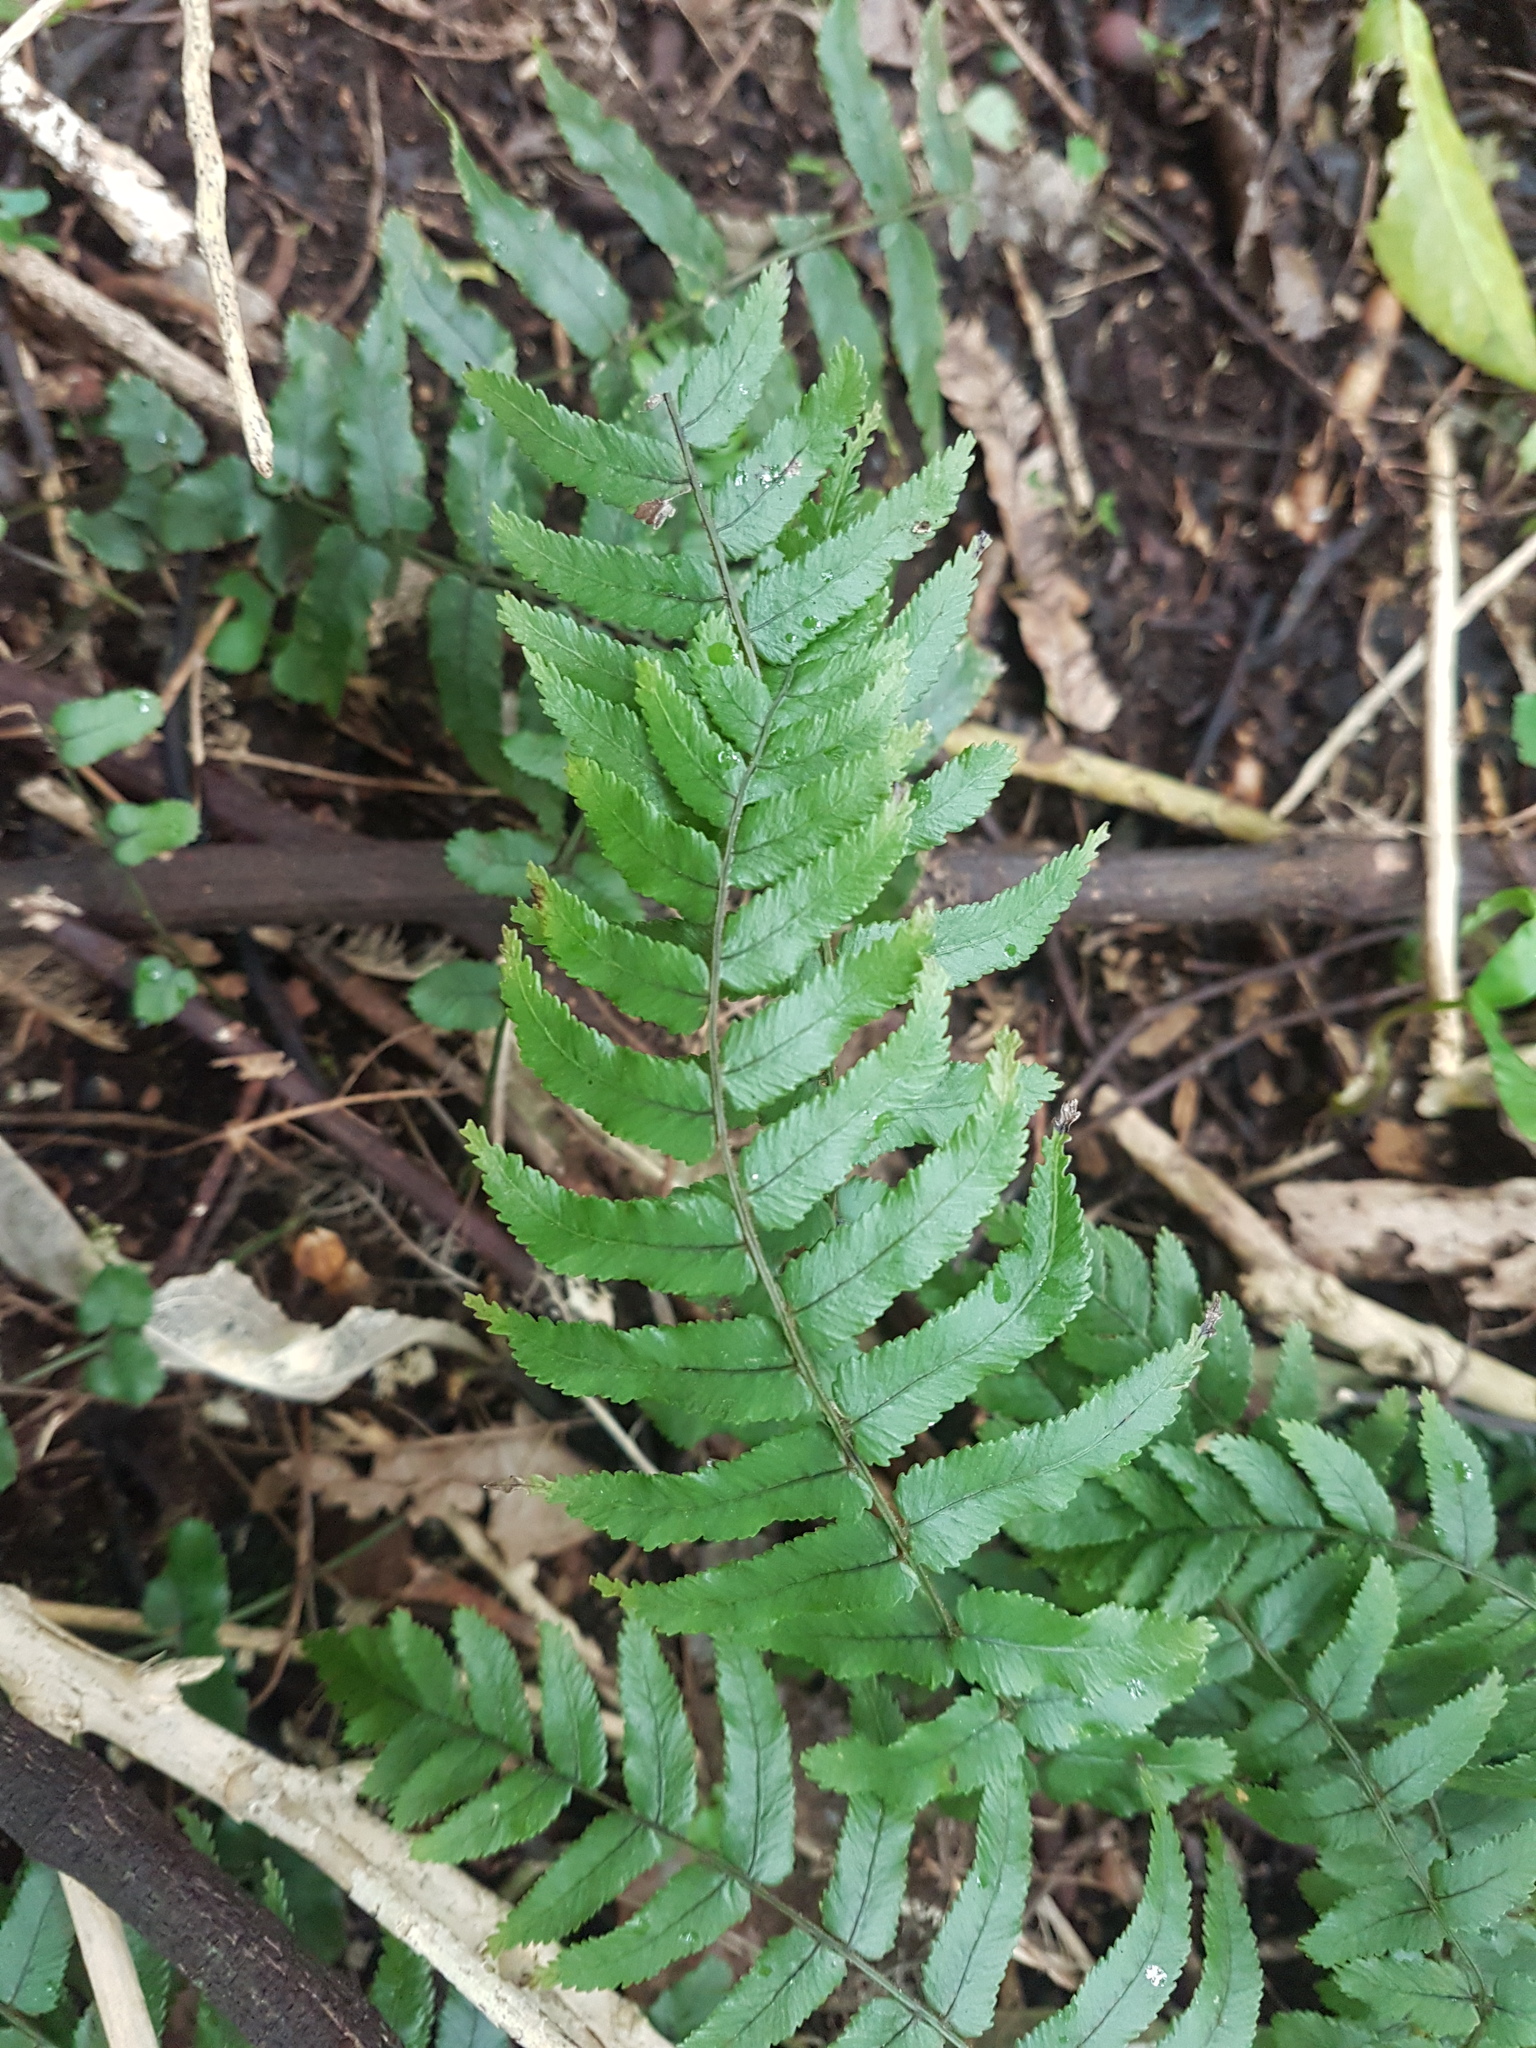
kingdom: Plantae
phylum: Tracheophyta
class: Polypodiopsida
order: Polypodiales
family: Blechnaceae
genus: Icarus
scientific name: Icarus filiformis
